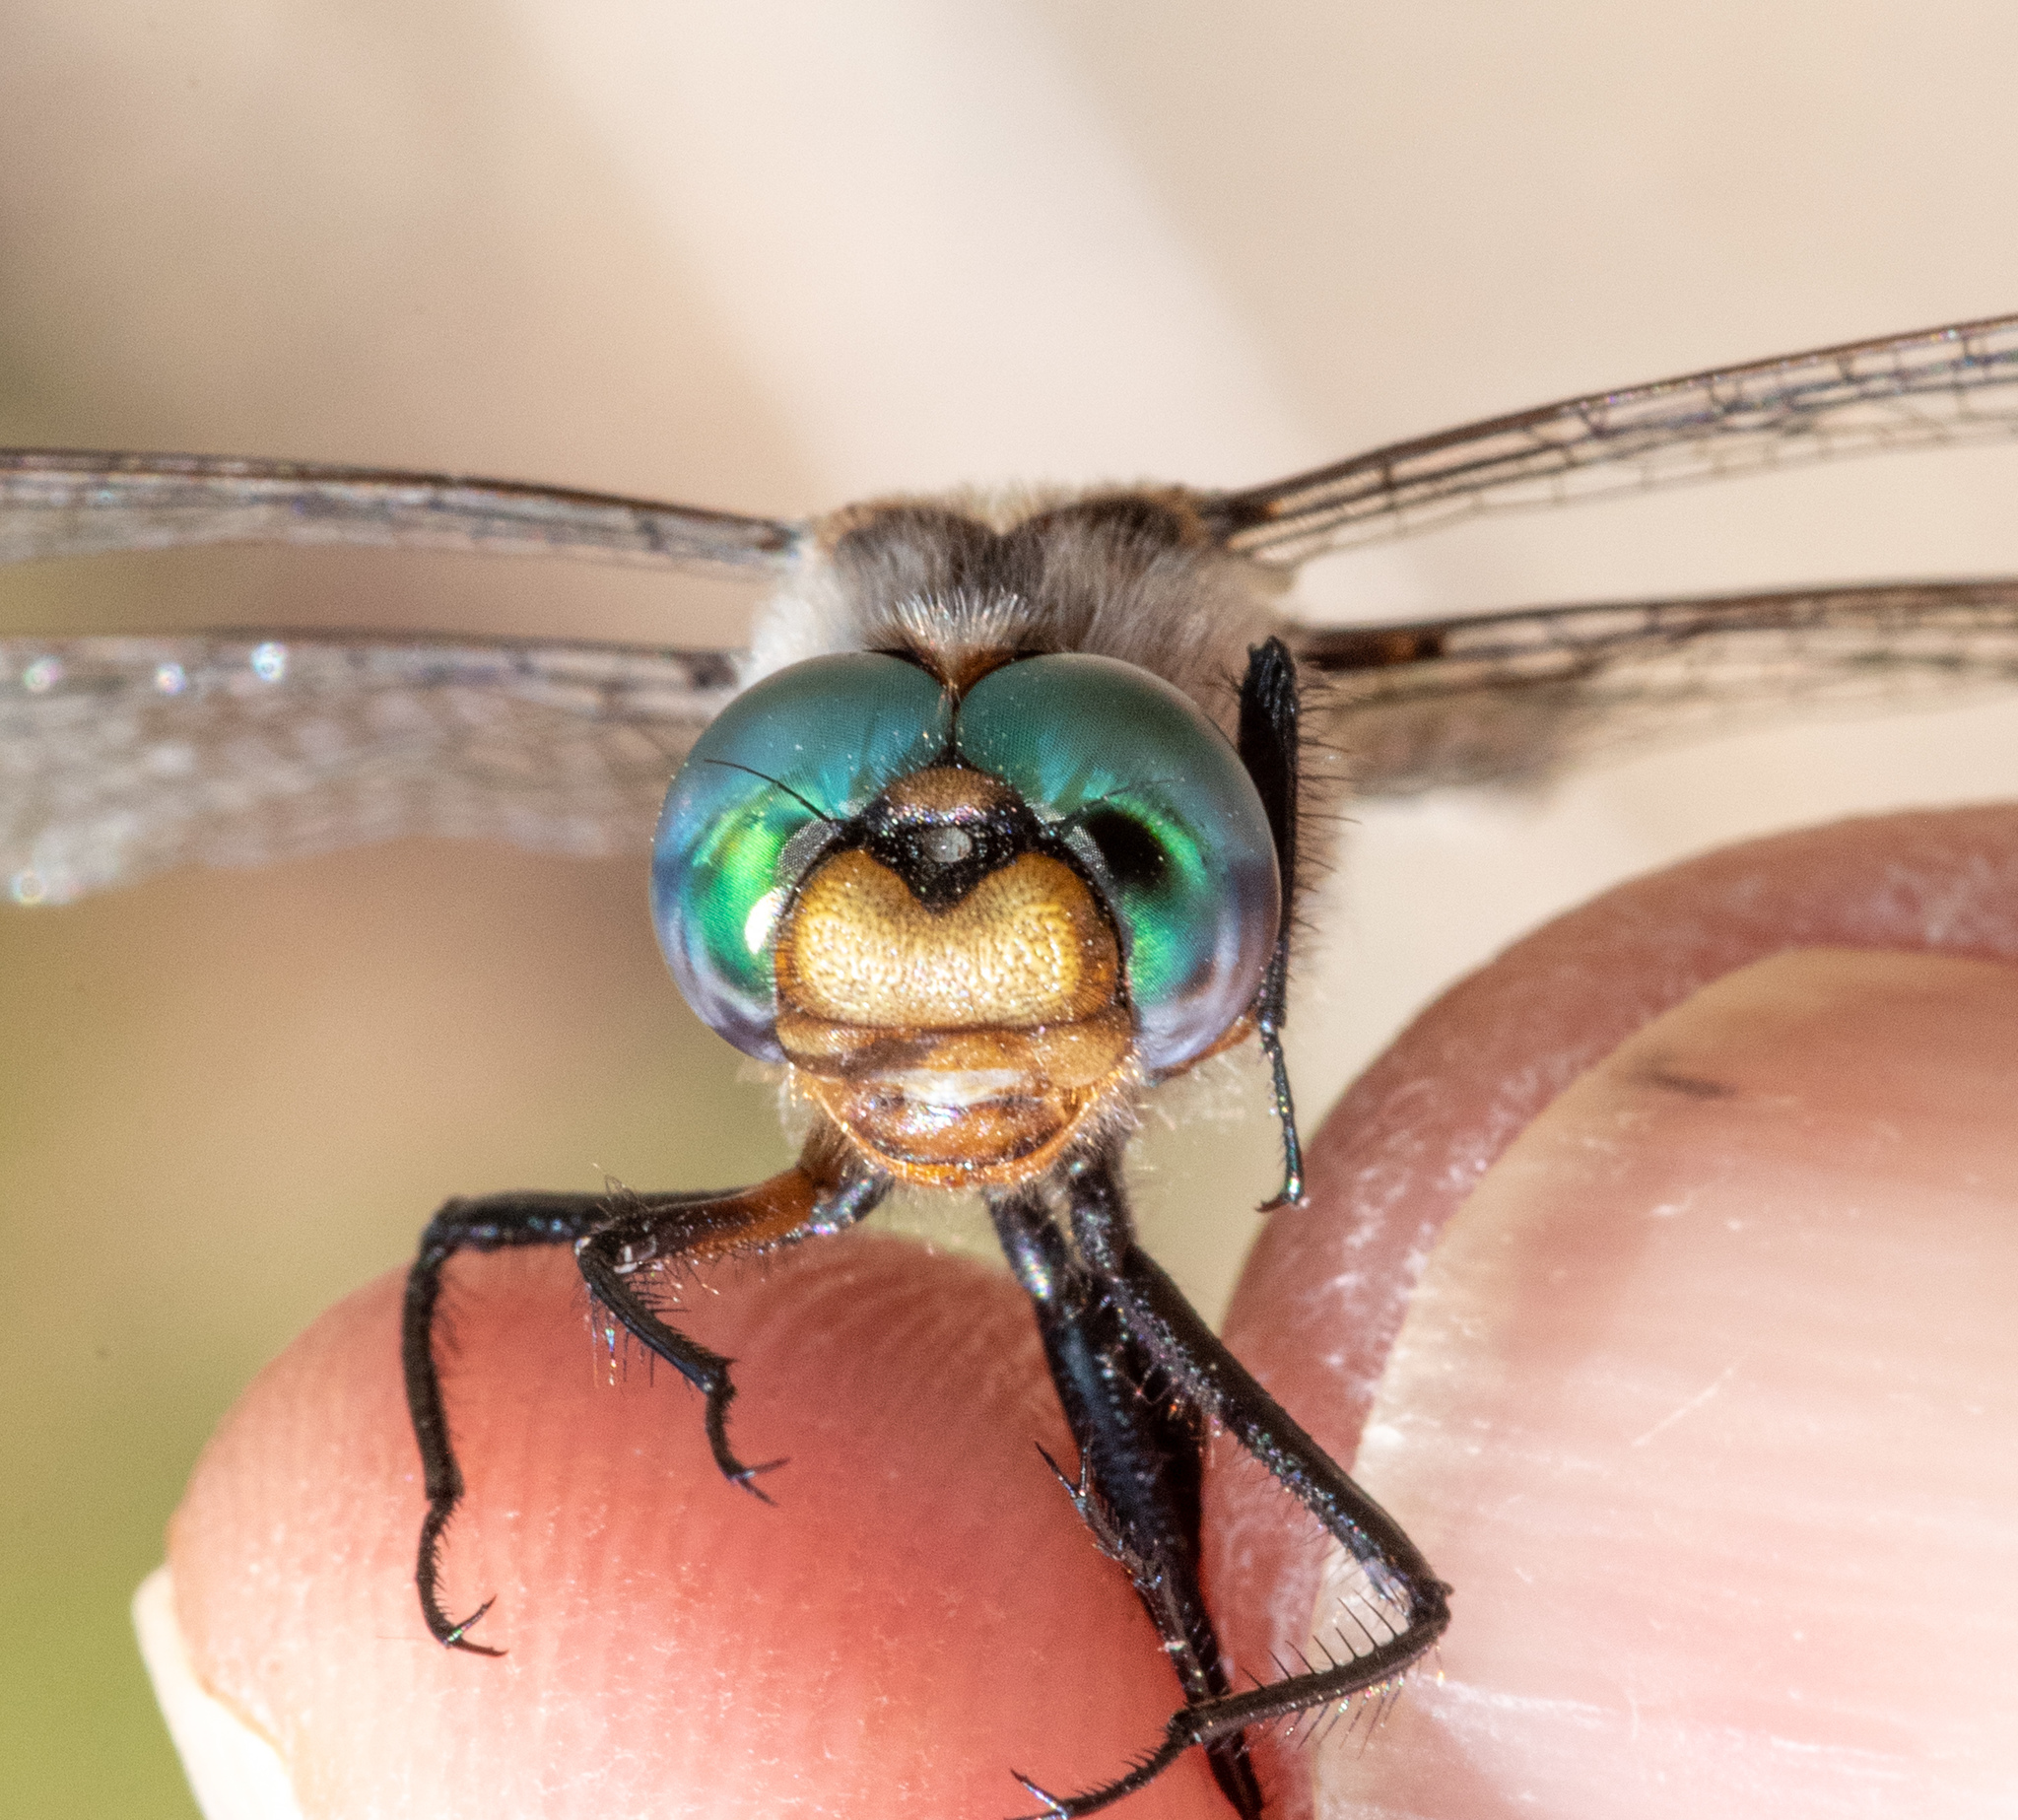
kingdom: Animalia
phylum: Arthropoda
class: Insecta
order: Odonata
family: Corduliidae
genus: Epitheca
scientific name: Epitheca canis
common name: Beaverpond baskettail
